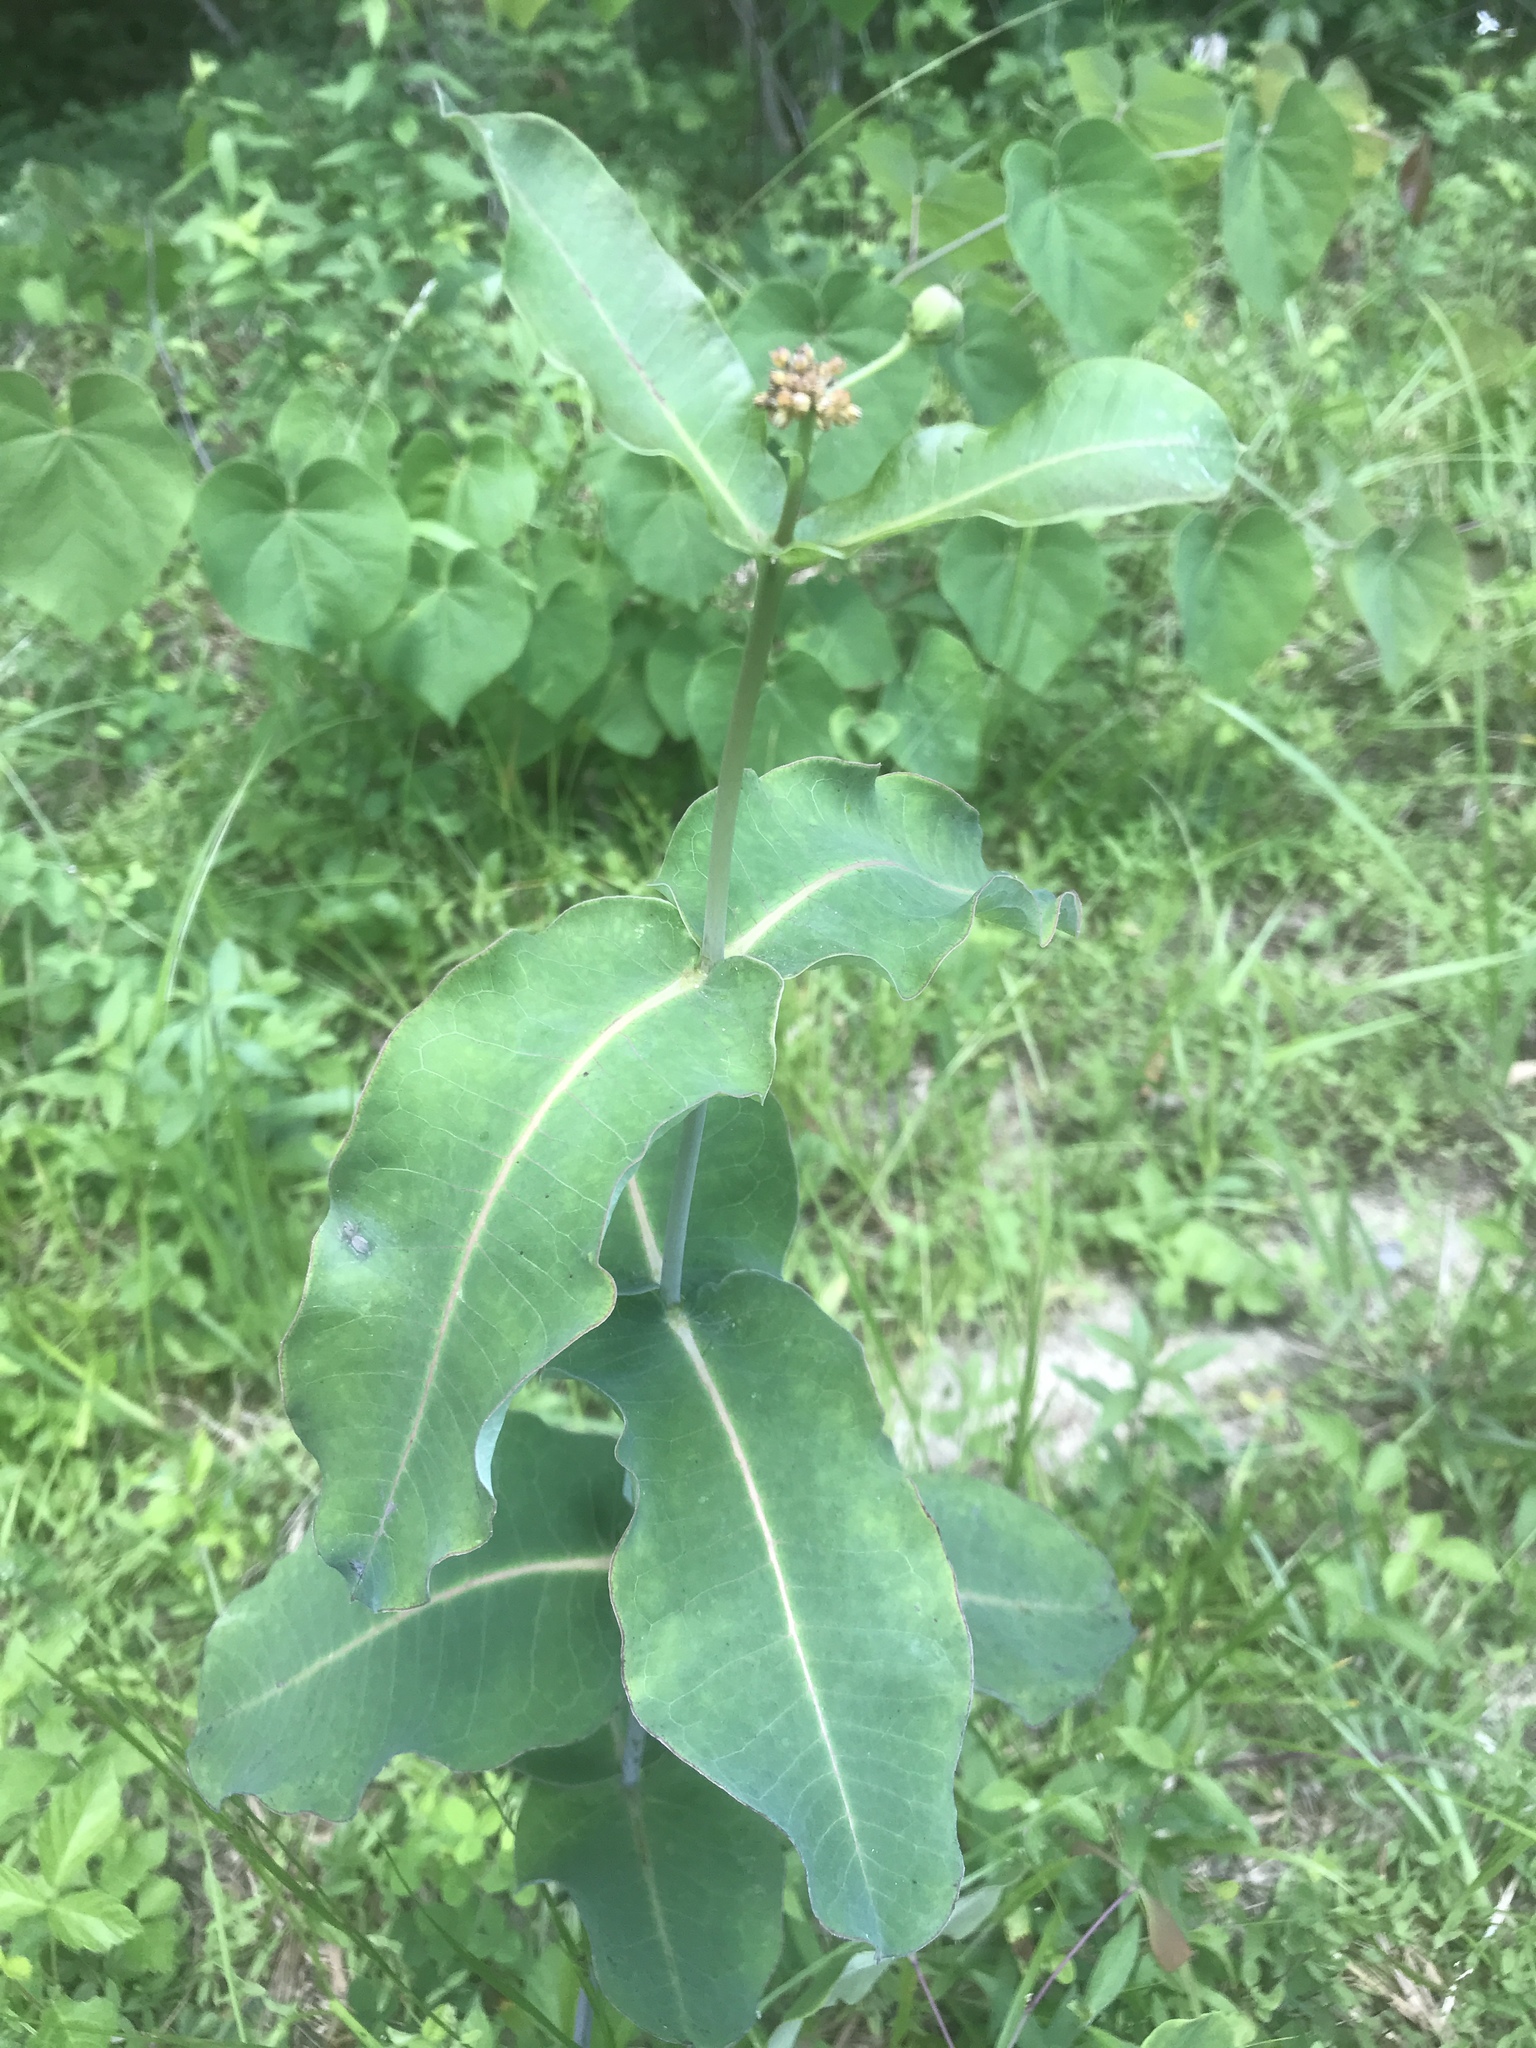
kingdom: Plantae
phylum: Tracheophyta
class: Magnoliopsida
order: Gentianales
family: Apocynaceae
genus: Asclepias
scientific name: Asclepias amplexicaulis
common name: Blunt-leaf milkweed
